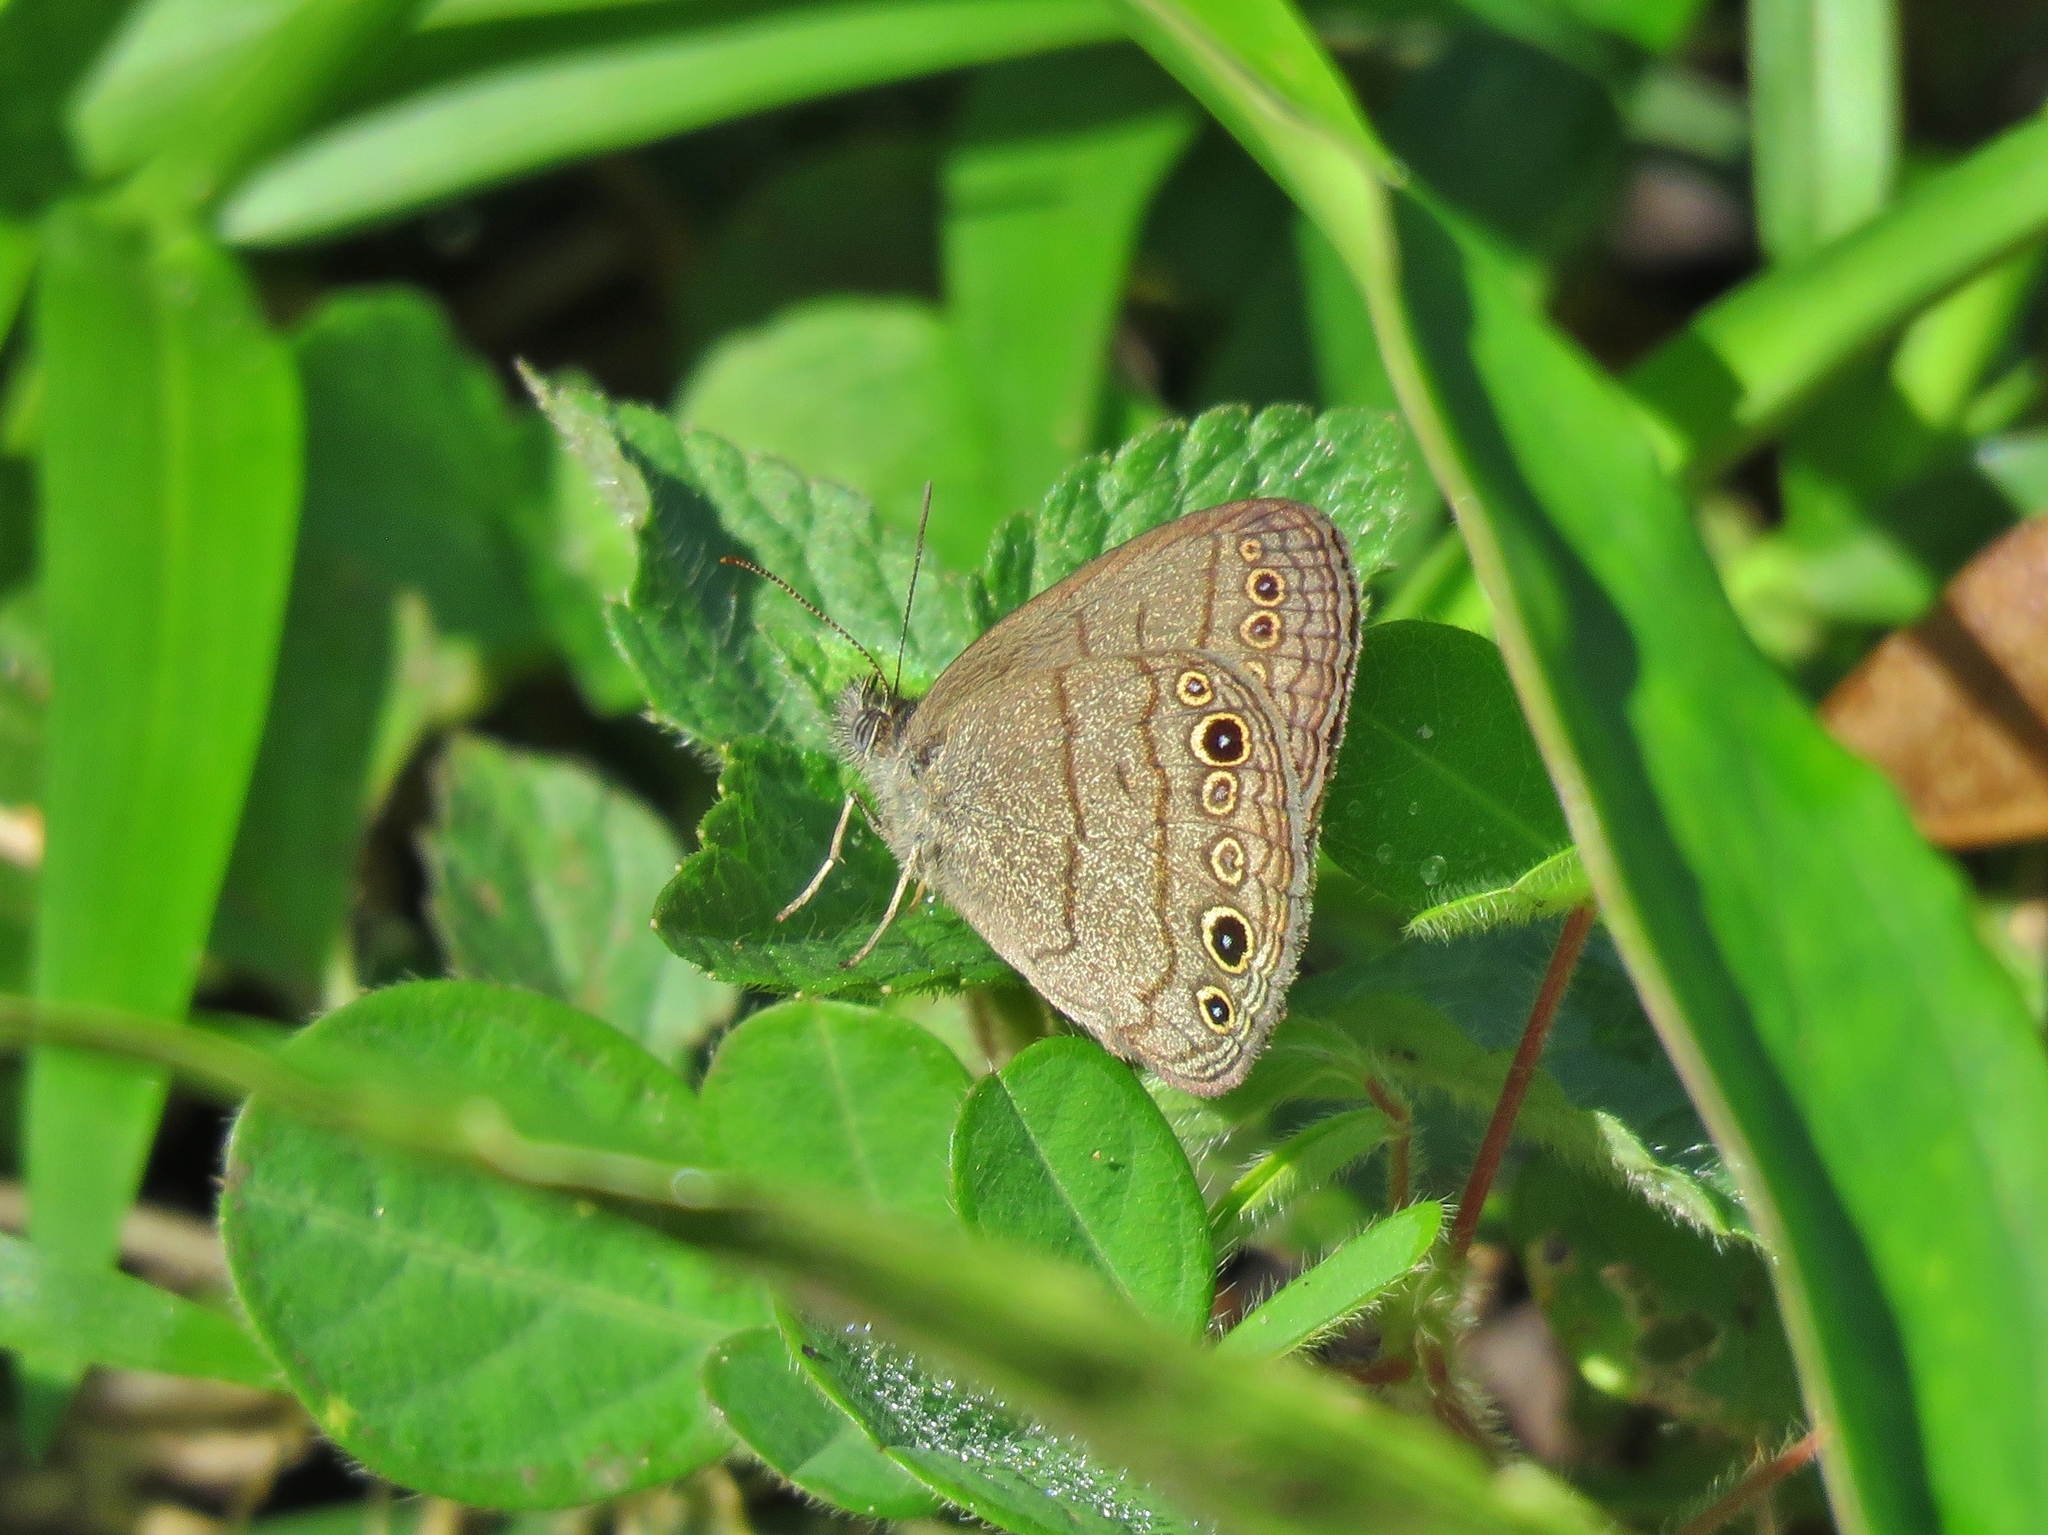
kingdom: Animalia
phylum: Arthropoda
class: Insecta
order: Lepidoptera
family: Nymphalidae
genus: Hermeuptychia
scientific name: Hermeuptychia hermes
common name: Hermes satyr
